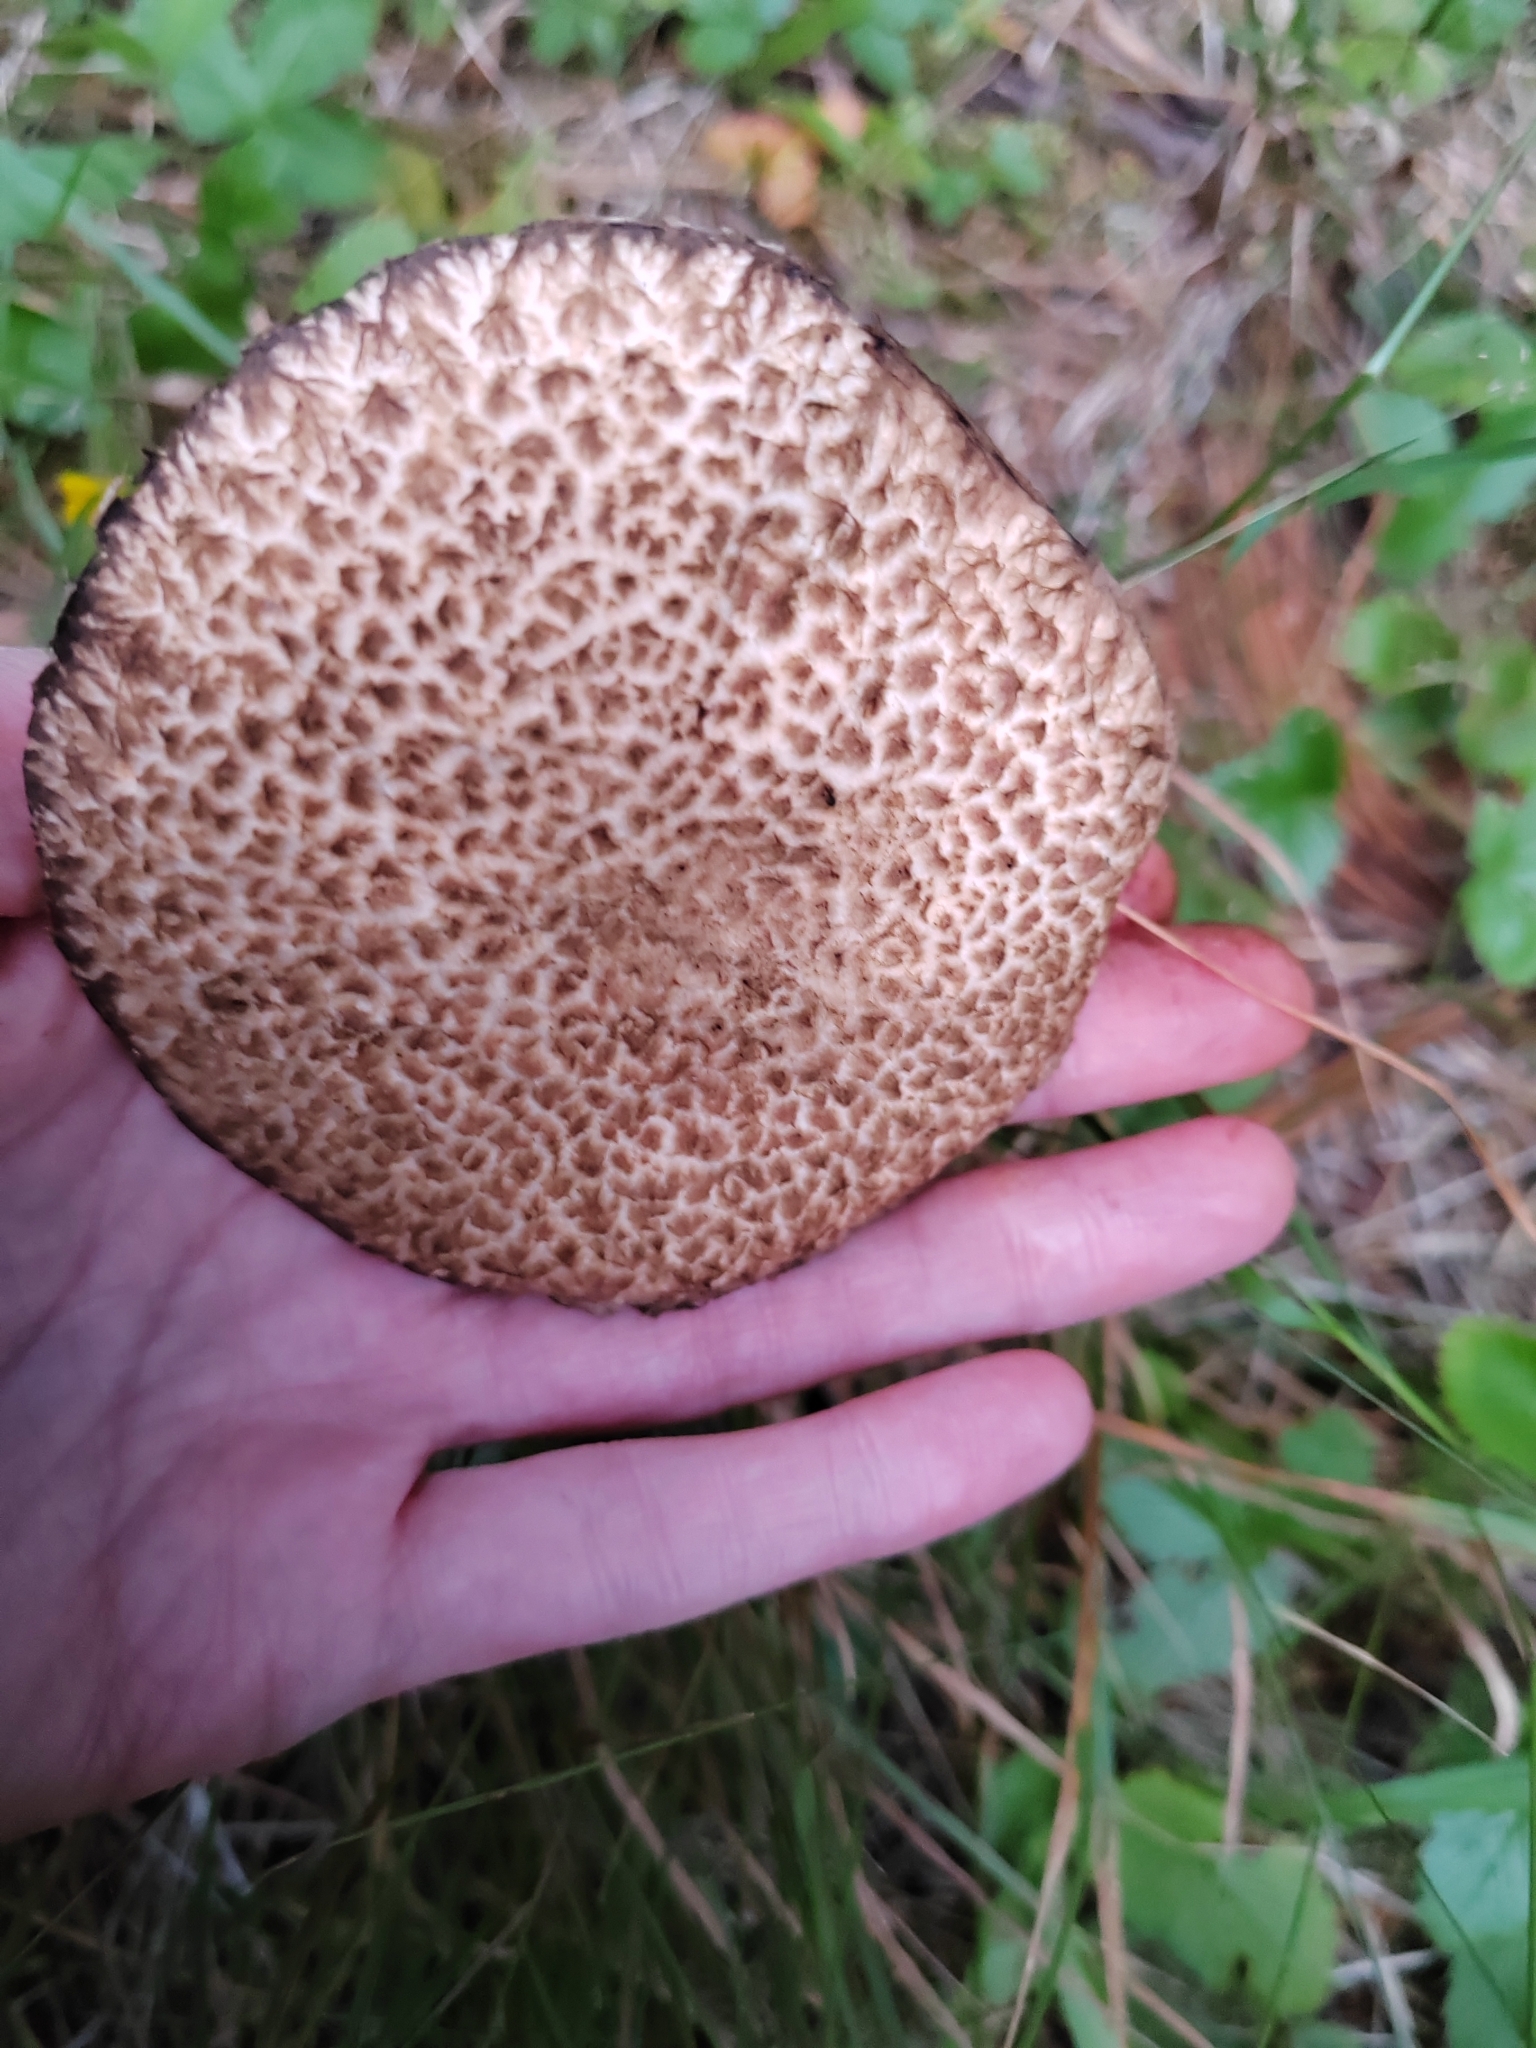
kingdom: Fungi
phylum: Basidiomycota
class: Agaricomycetes
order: Boletales
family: Suillaceae
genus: Suillus
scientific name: Suillus spraguei
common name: Painted suillus
